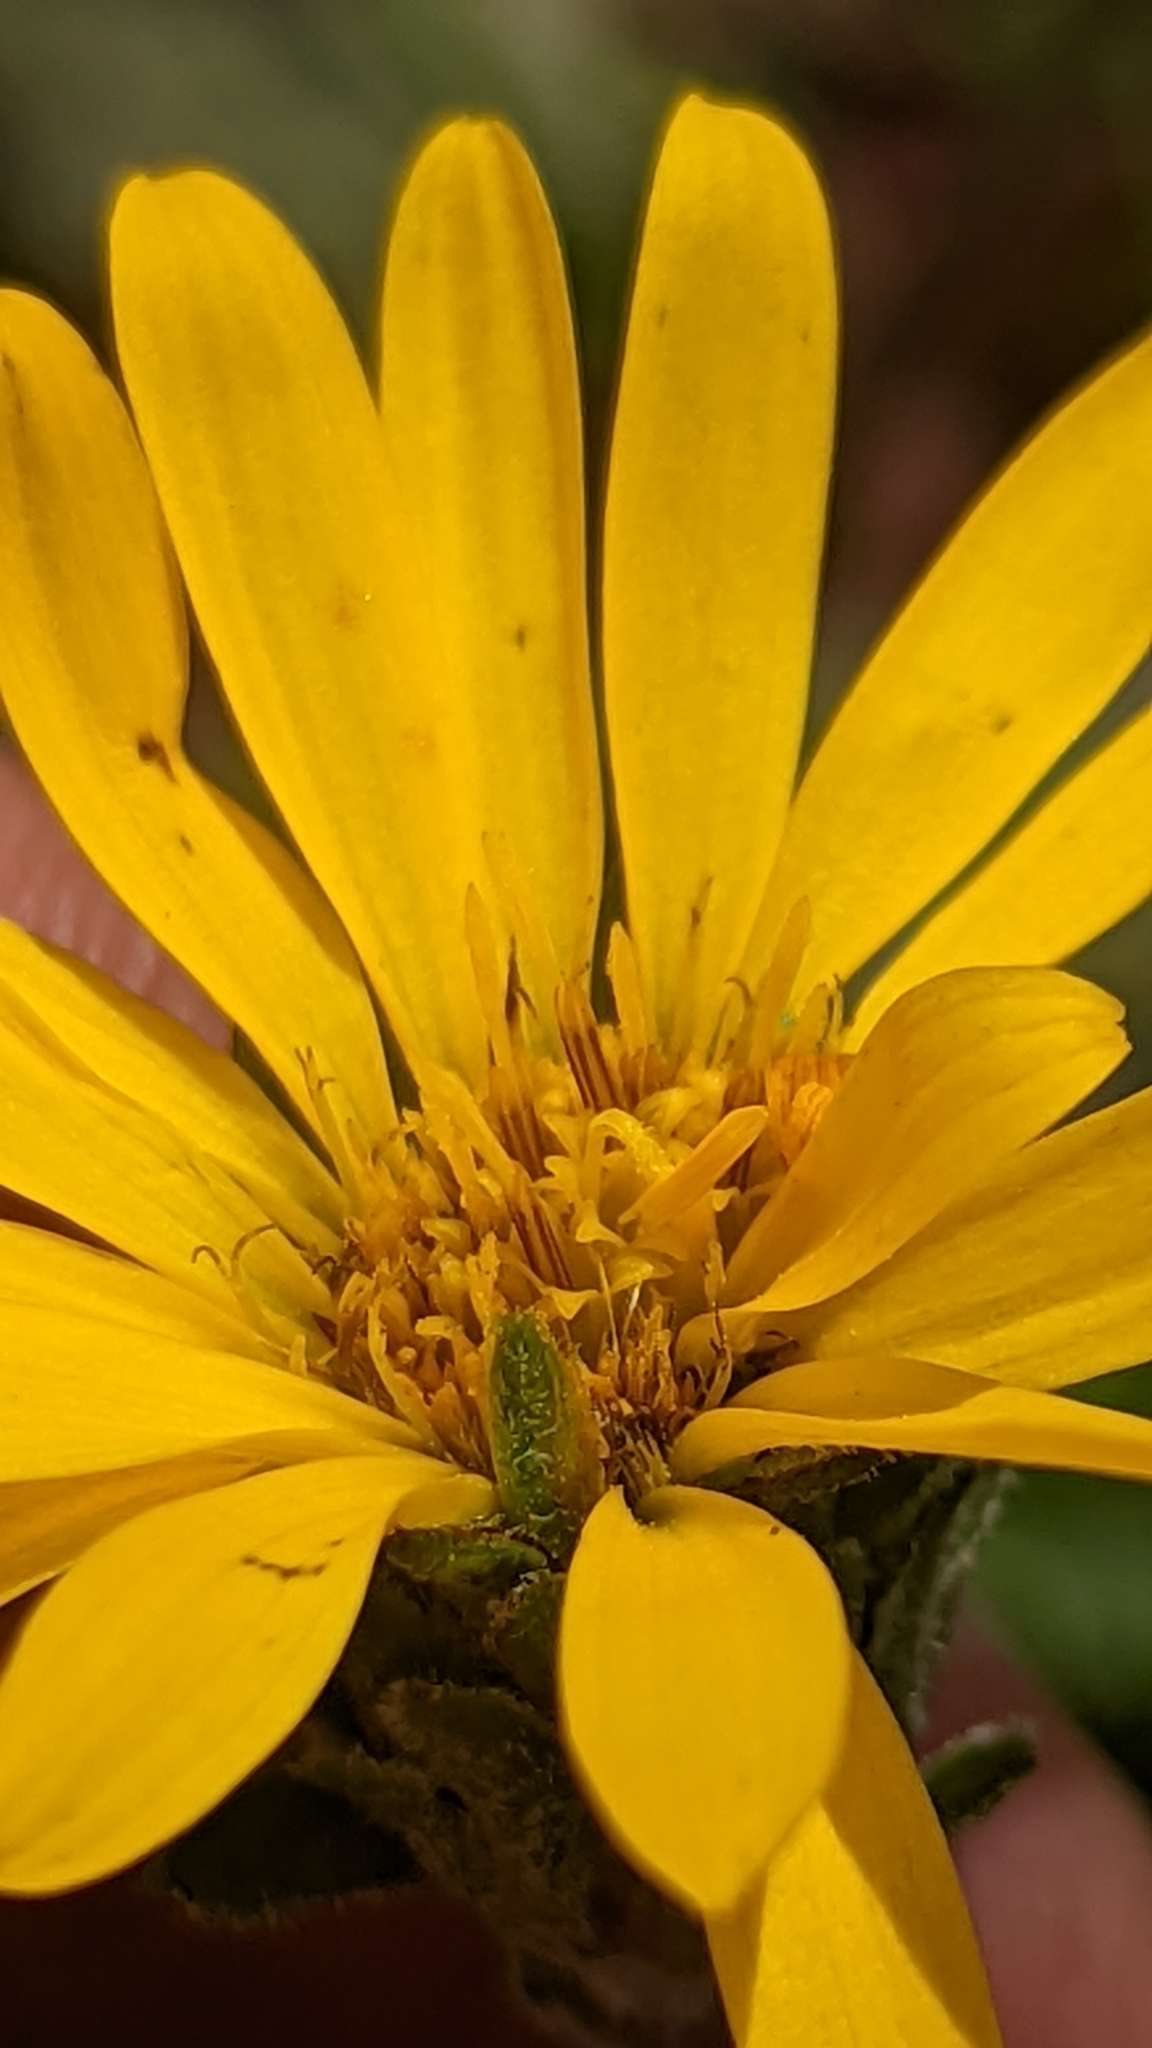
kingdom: Plantae
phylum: Tracheophyta
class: Magnoliopsida
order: Asterales
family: Asteraceae
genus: Pyrrocoma
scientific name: Pyrrocoma clementis
